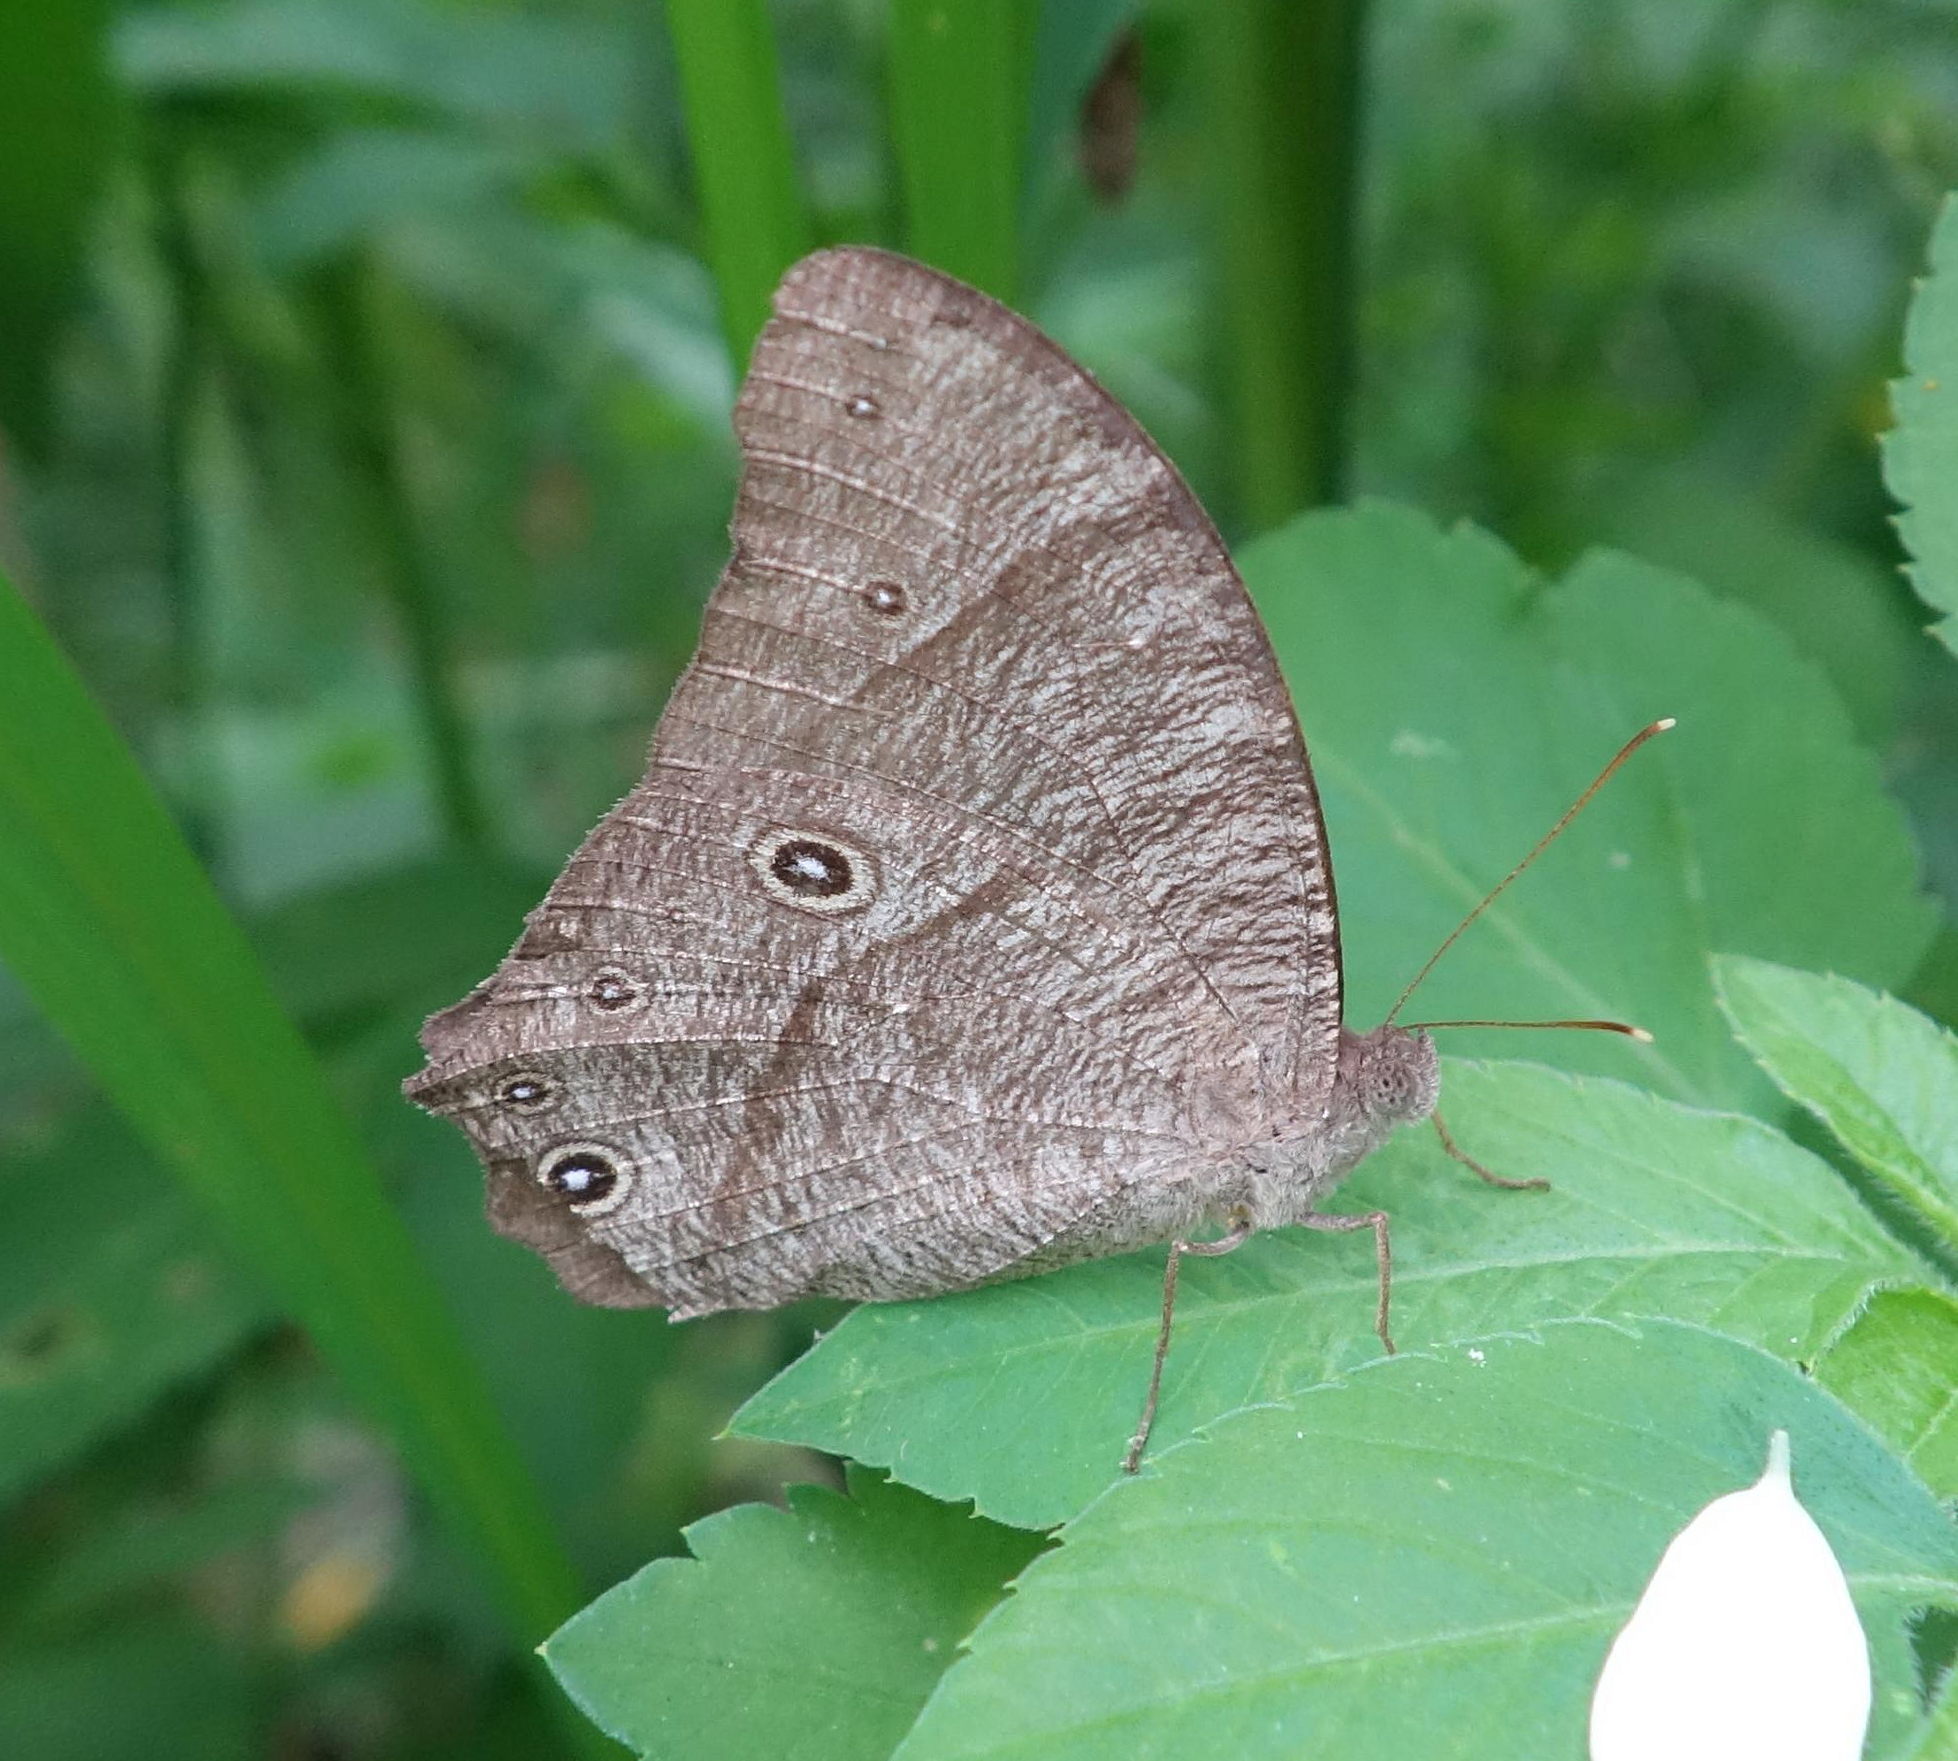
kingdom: Animalia
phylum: Arthropoda
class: Insecta
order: Lepidoptera
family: Nymphalidae
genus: Melanitis
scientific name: Melanitis leda
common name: Twilight brown
